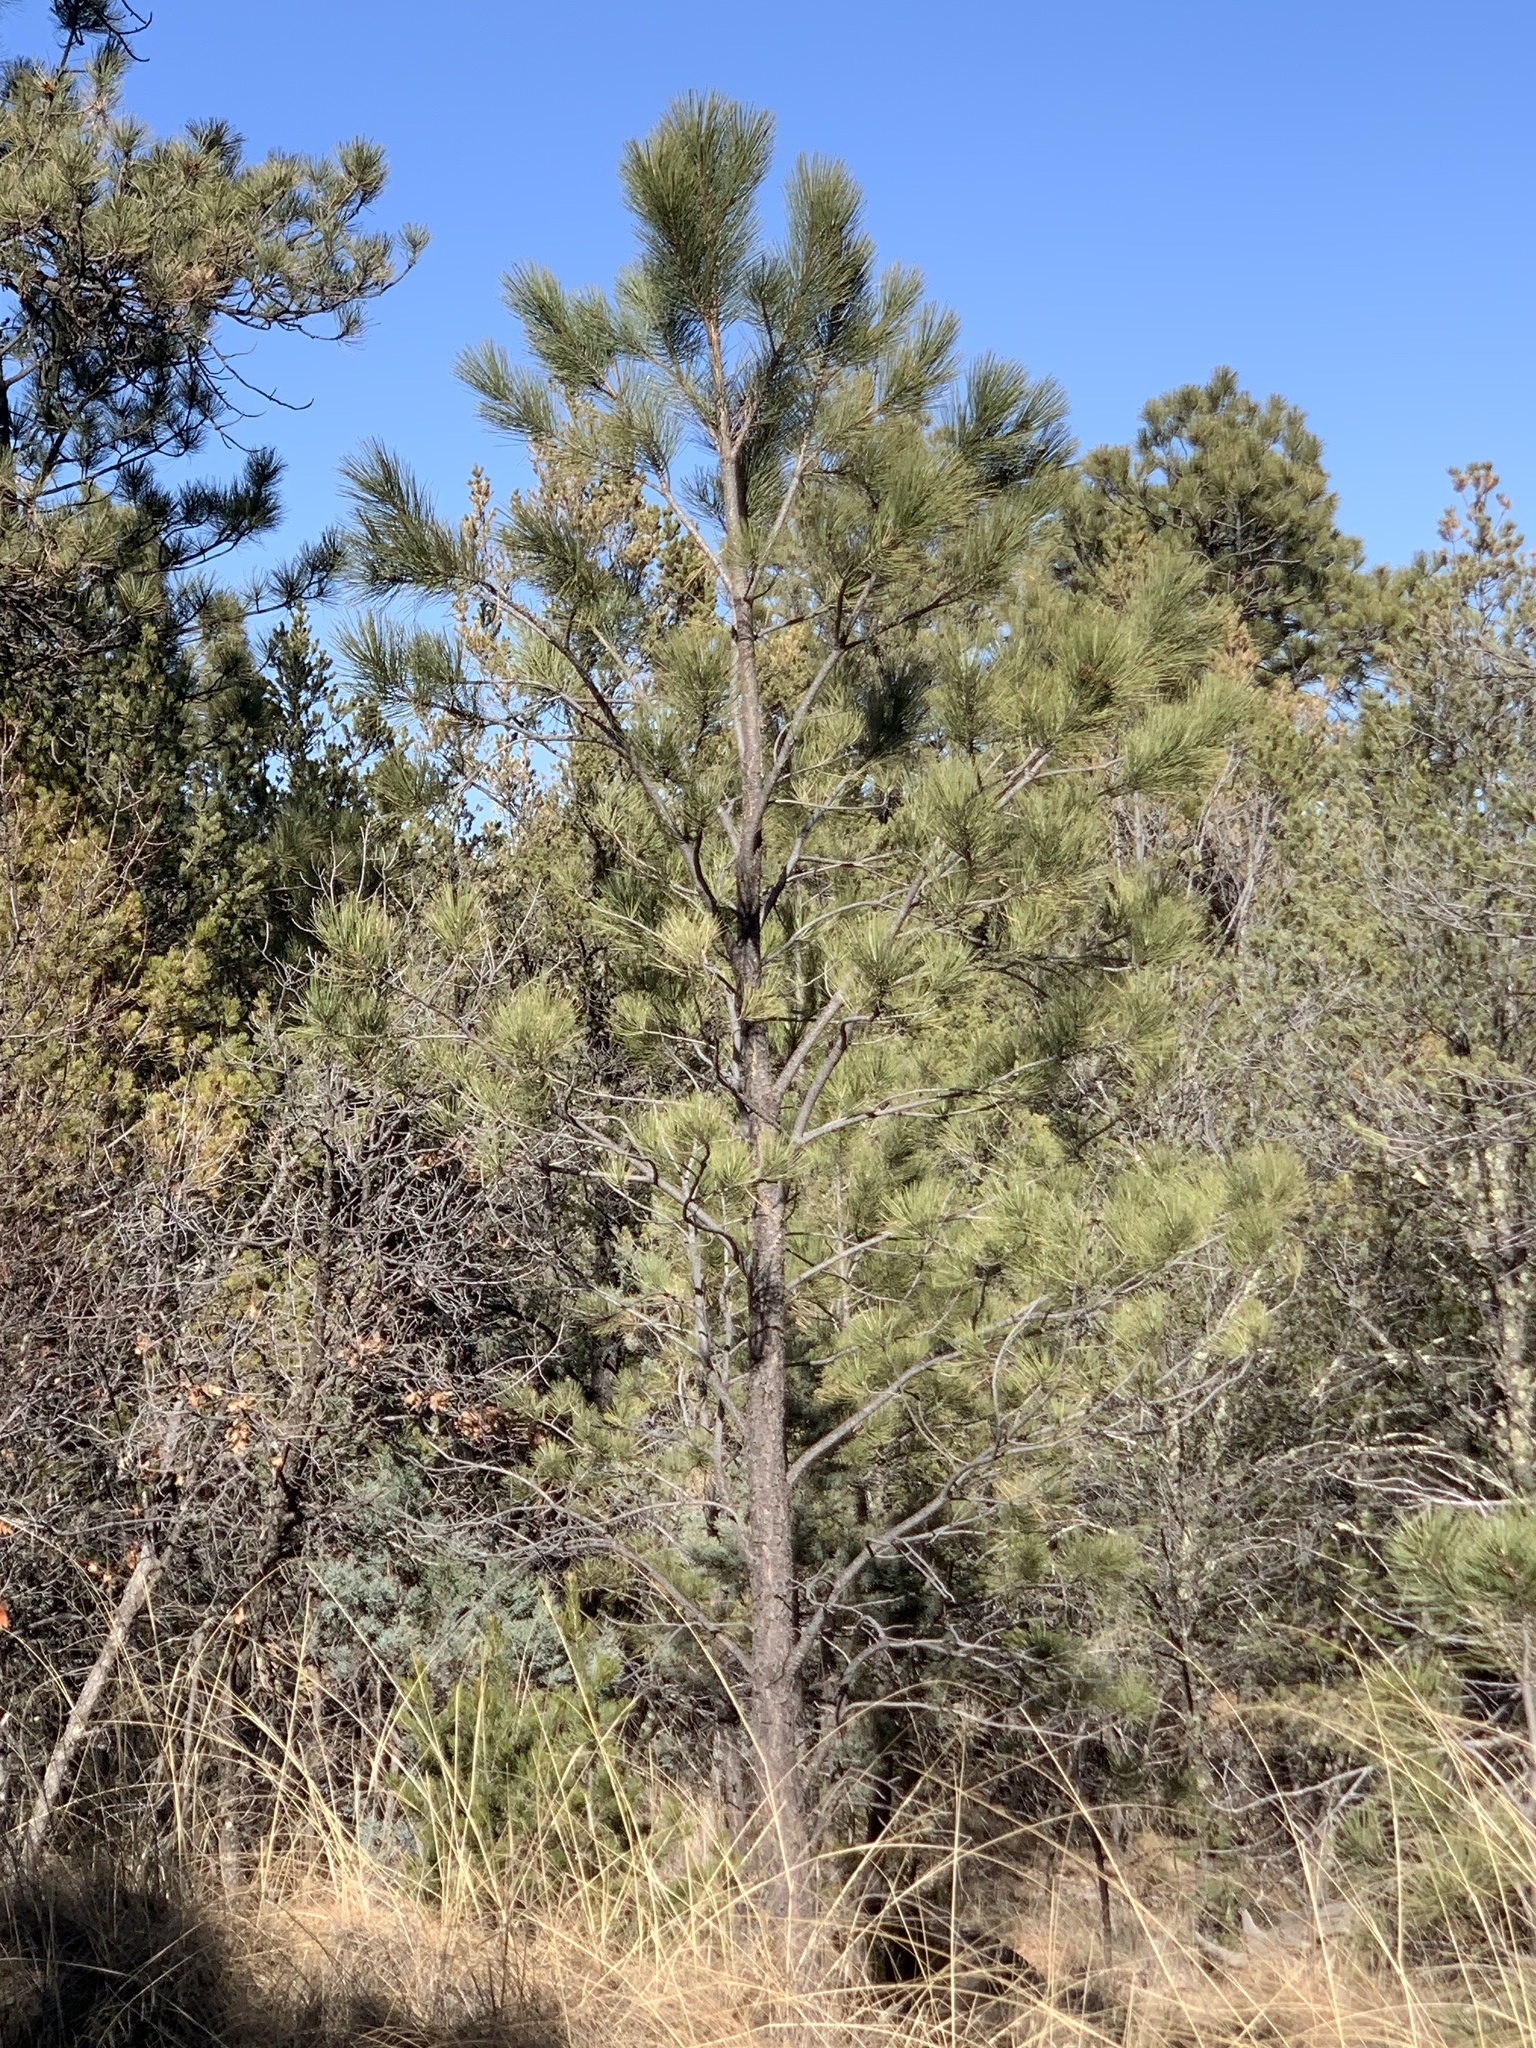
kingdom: Plantae
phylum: Tracheophyta
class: Pinopsida
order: Pinales
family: Pinaceae
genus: Pinus
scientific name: Pinus ponderosa
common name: Western yellow-pine
